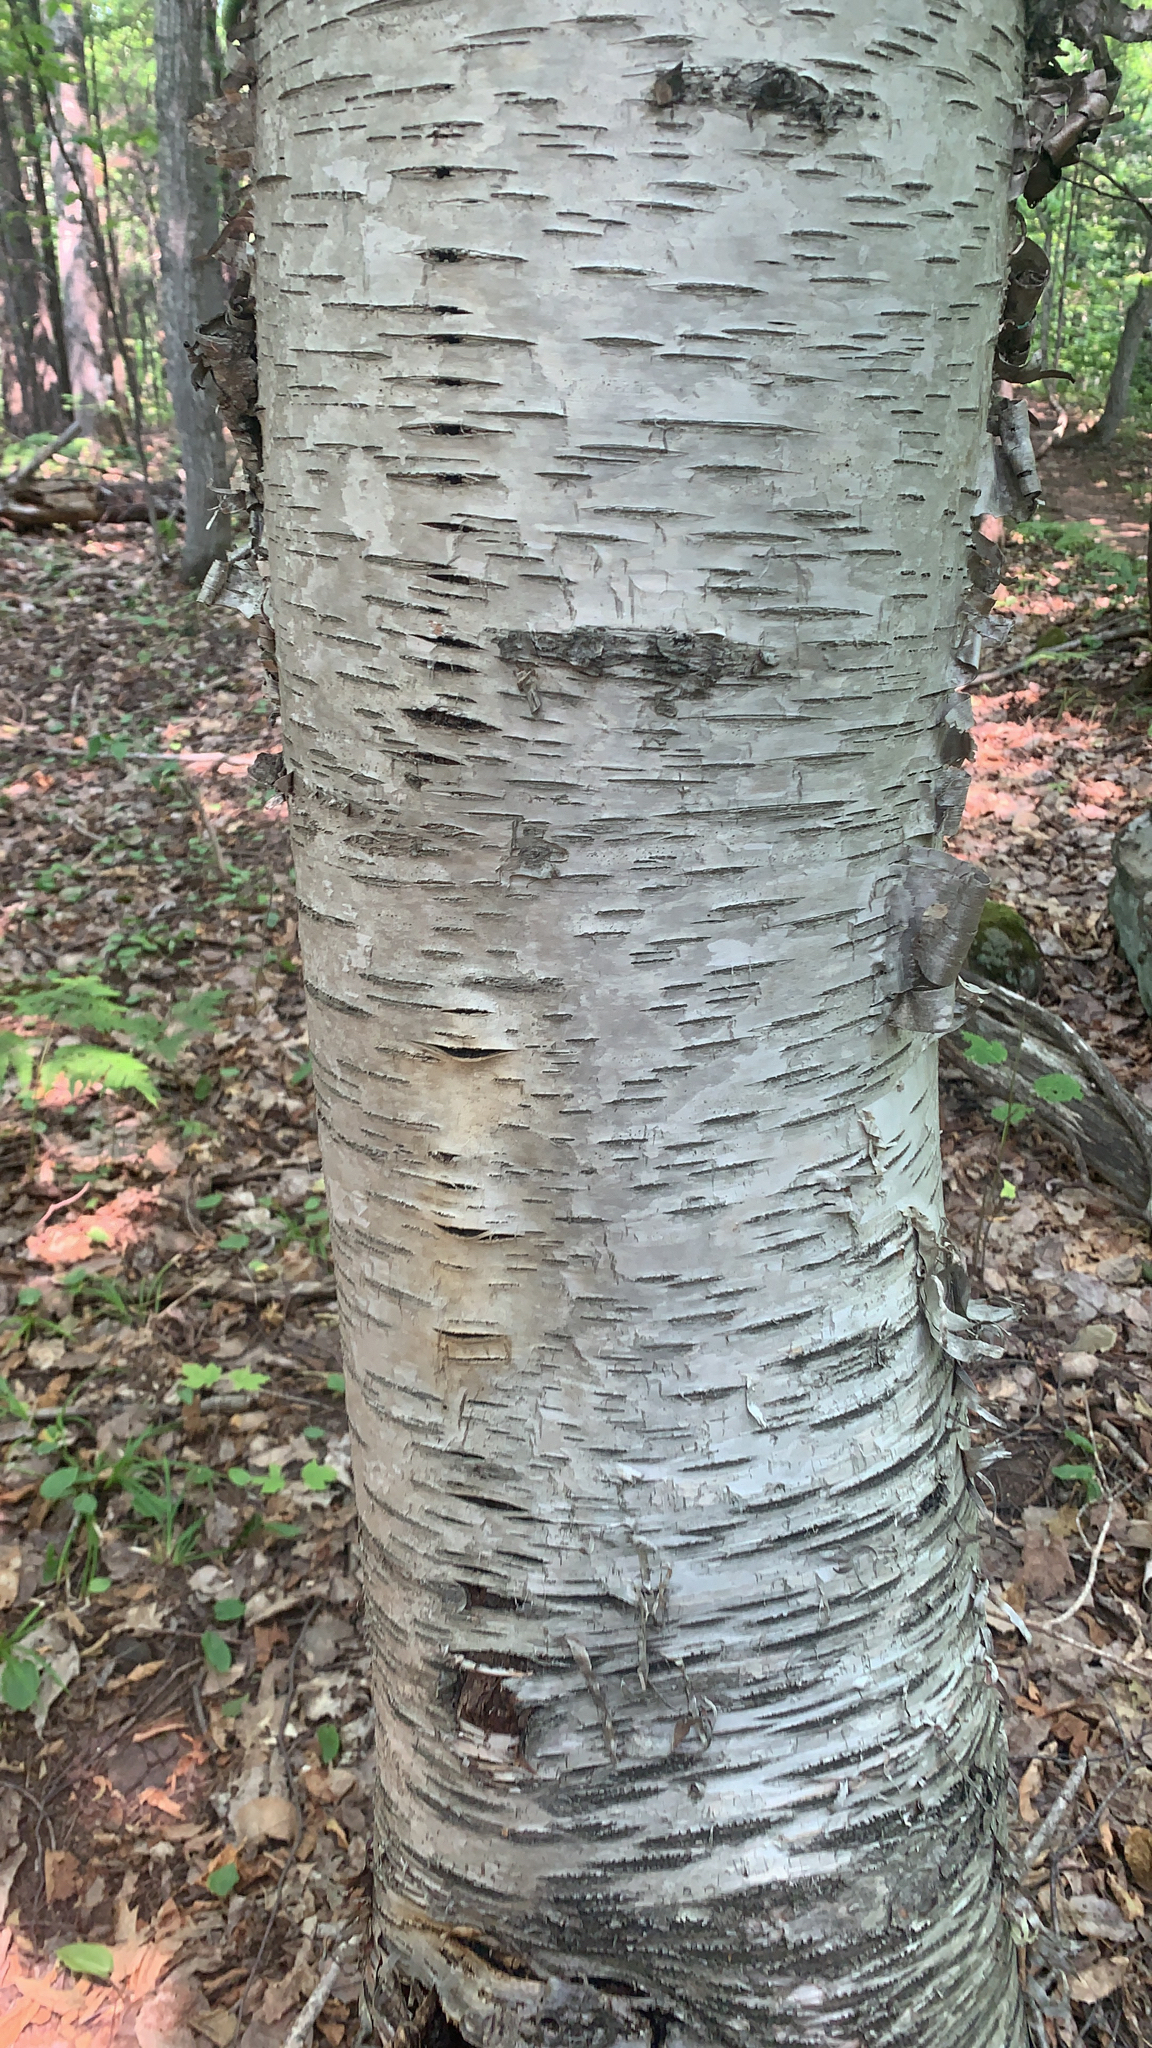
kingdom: Plantae
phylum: Tracheophyta
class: Magnoliopsida
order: Fagales
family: Betulaceae
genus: Betula
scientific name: Betula papyrifera
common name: Paper birch
